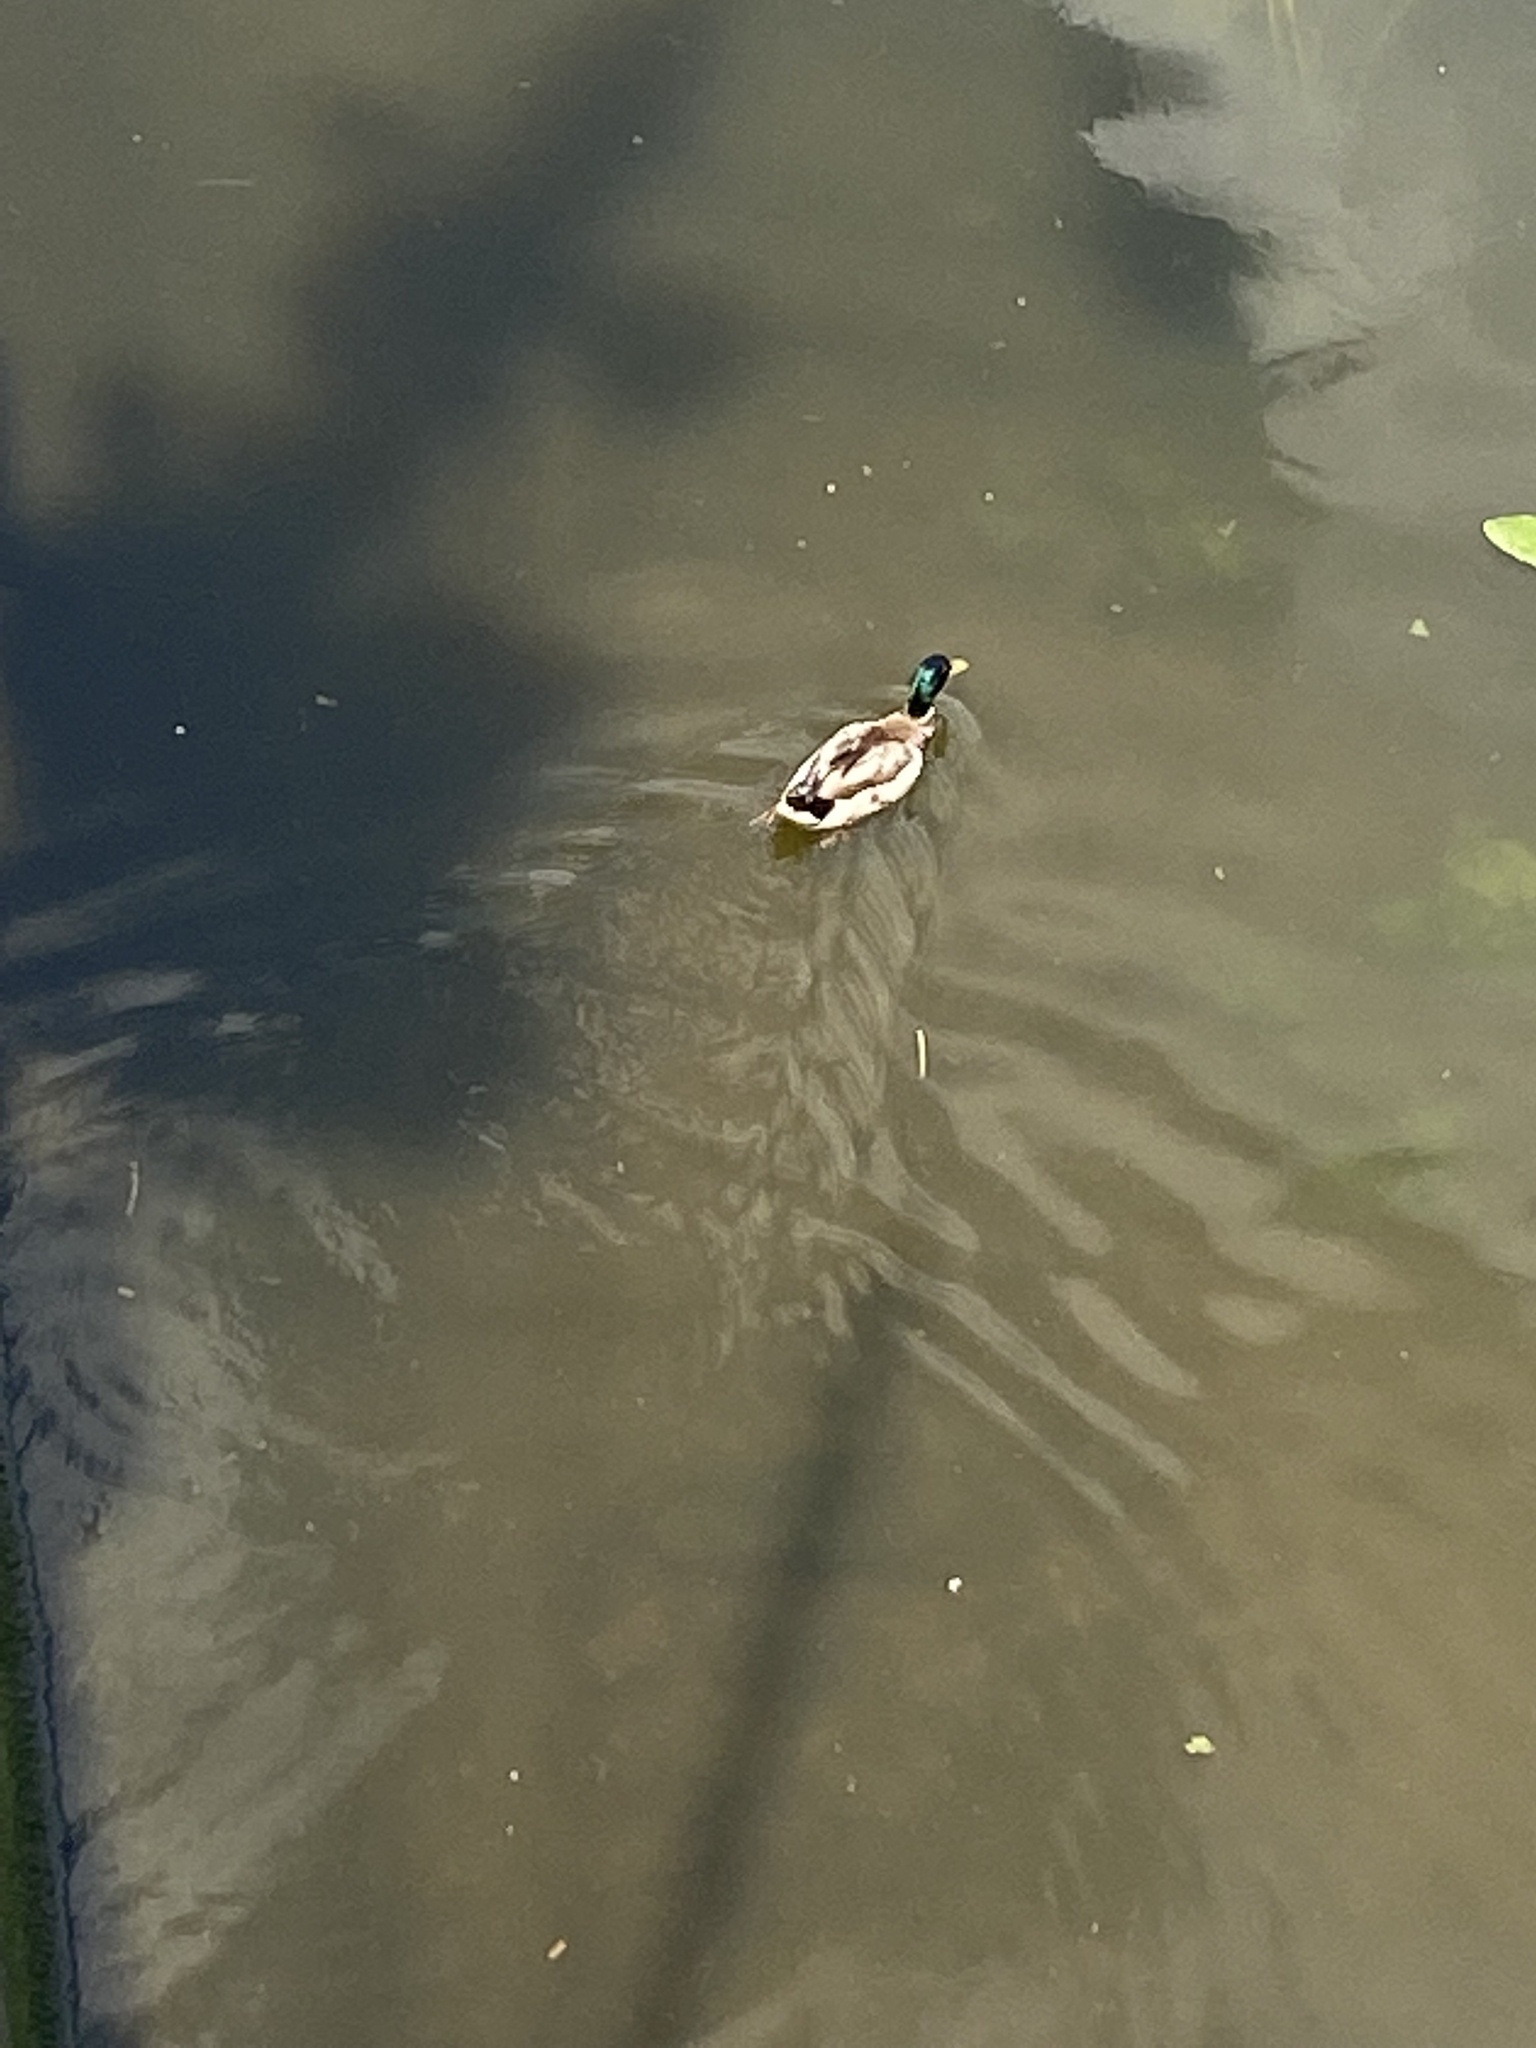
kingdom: Animalia
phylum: Chordata
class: Aves
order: Anseriformes
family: Anatidae
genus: Anas
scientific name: Anas platyrhynchos
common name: Mallard
